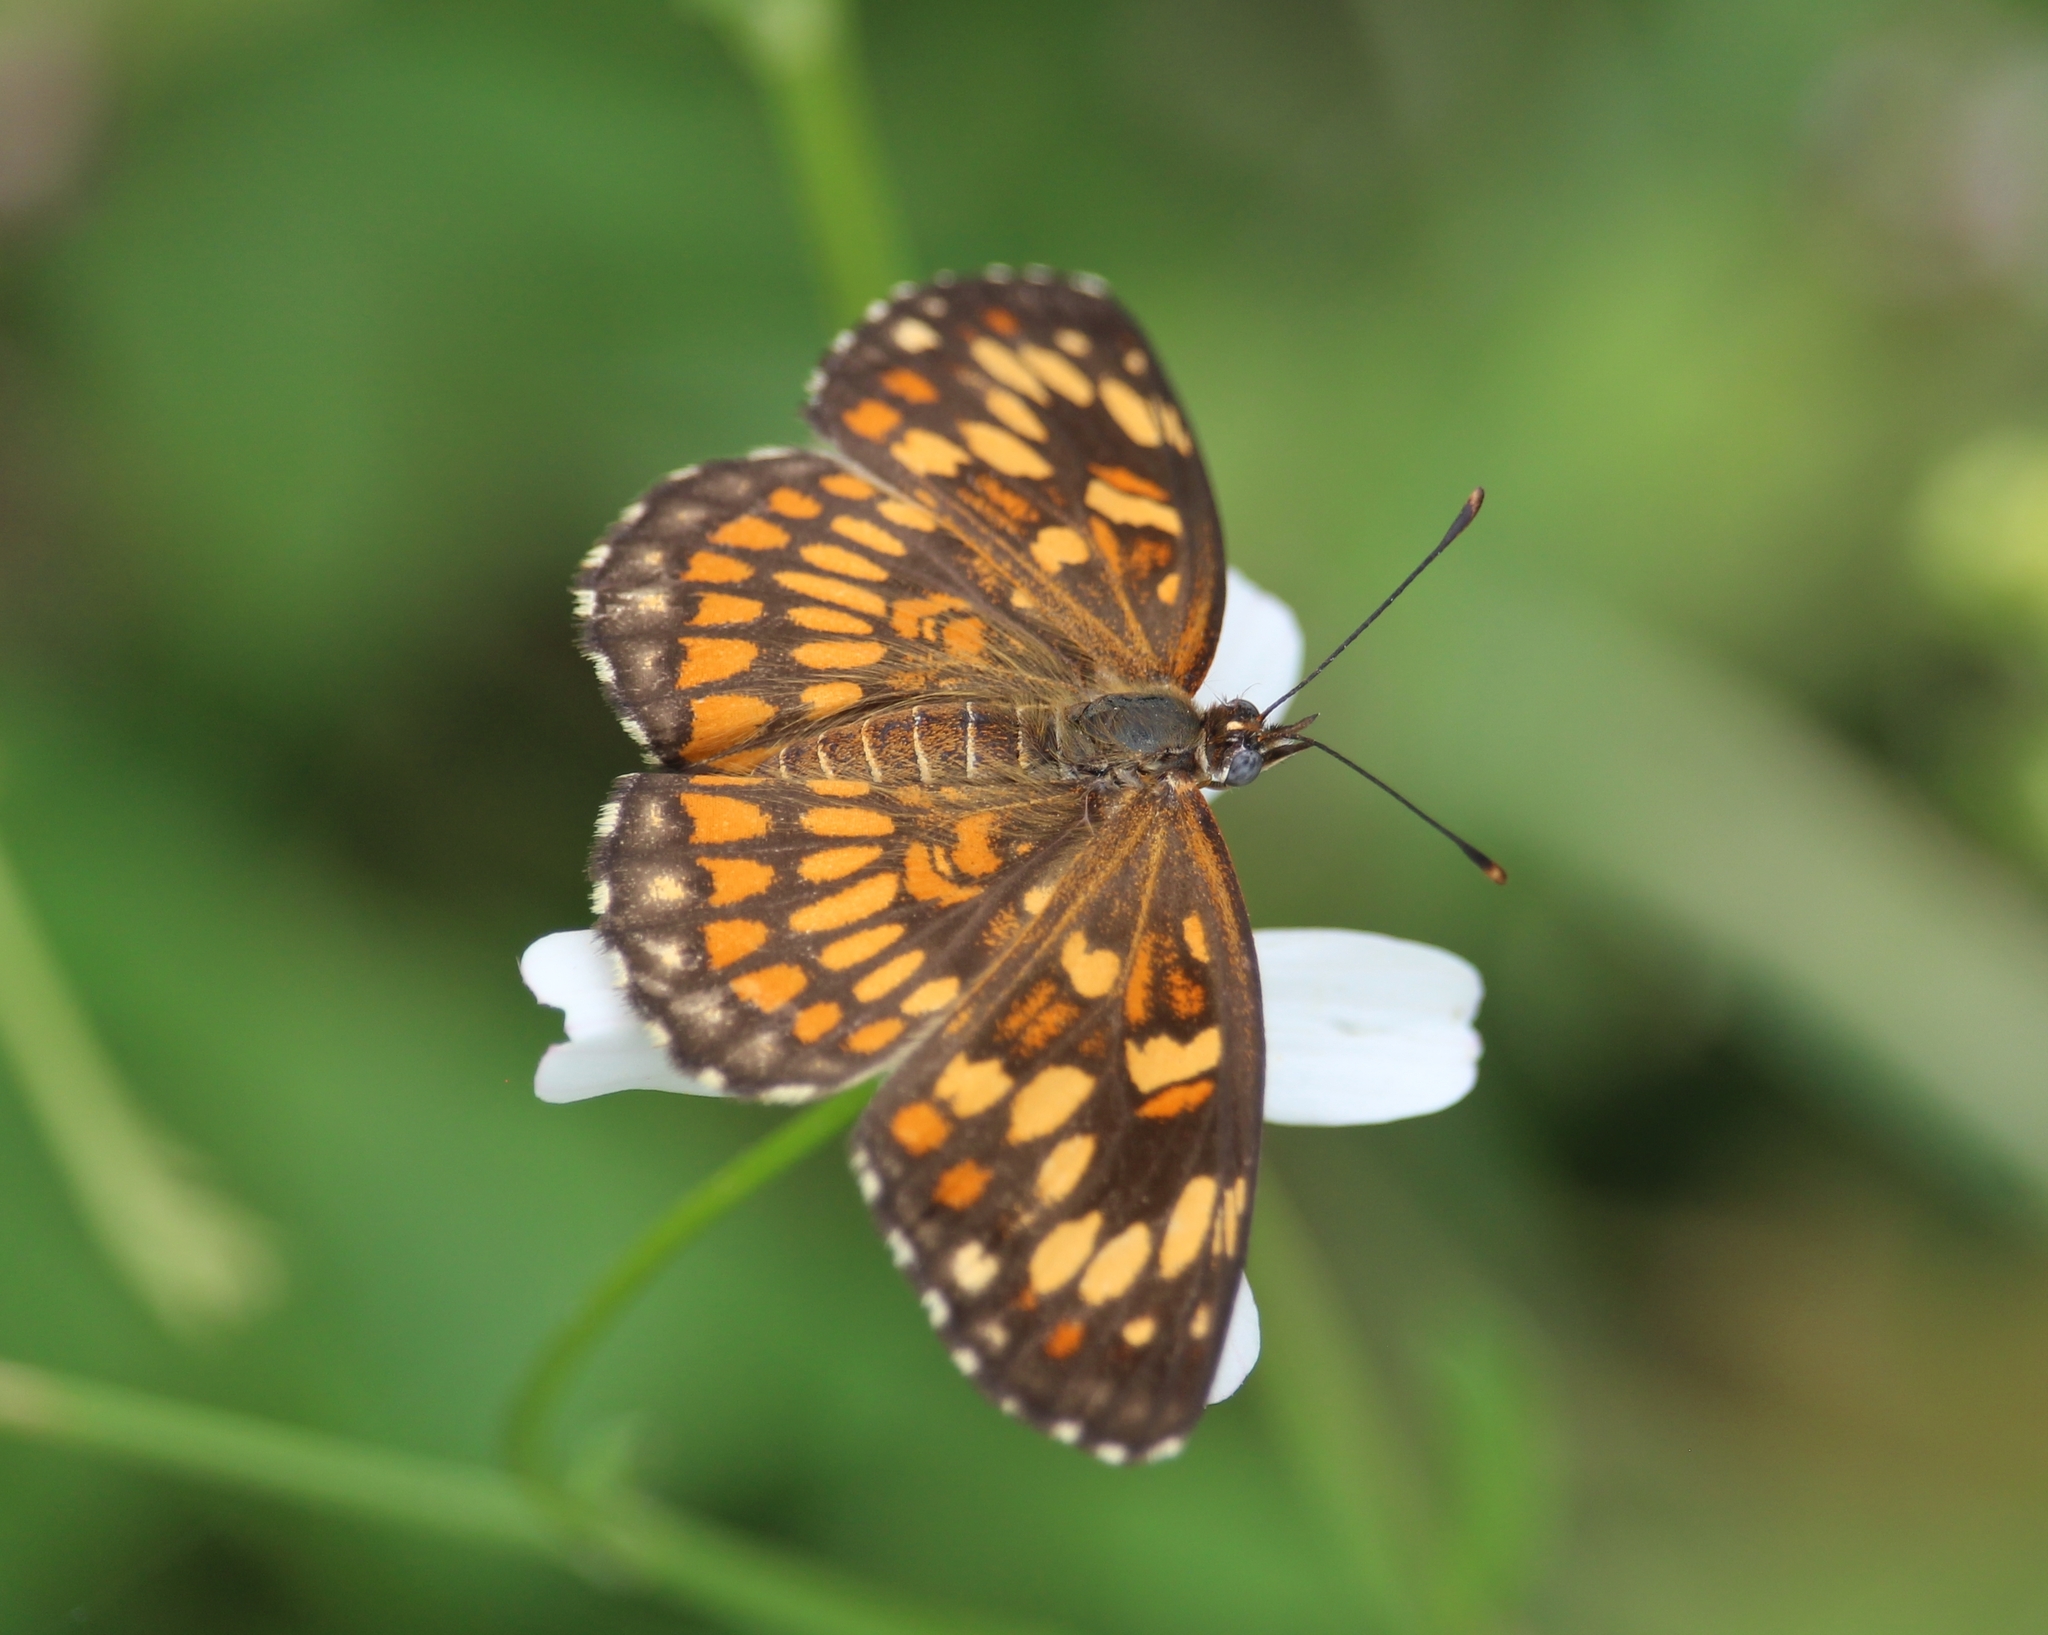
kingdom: Animalia
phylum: Arthropoda
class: Insecta
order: Lepidoptera
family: Nymphalidae
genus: Thessalia
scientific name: Thessalia theona
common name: Nymphalid moth
